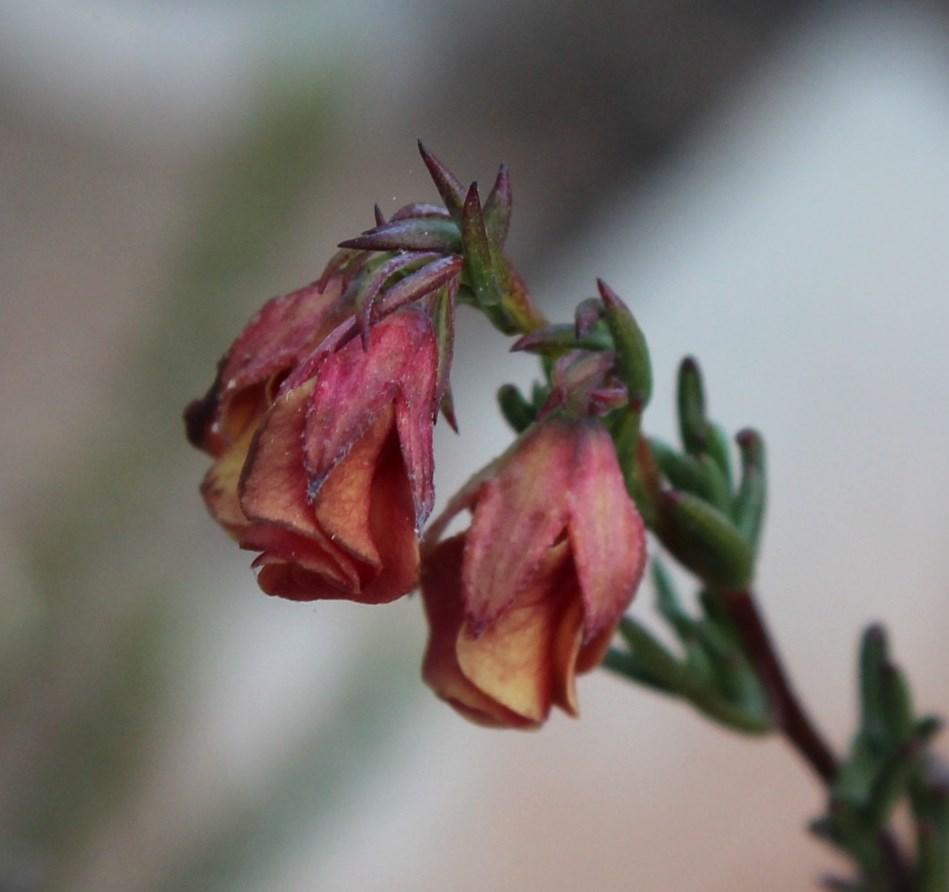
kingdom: Plantae
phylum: Tracheophyta
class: Magnoliopsida
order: Malvales
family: Malvaceae
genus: Hermannia
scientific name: Hermannia filifolia
